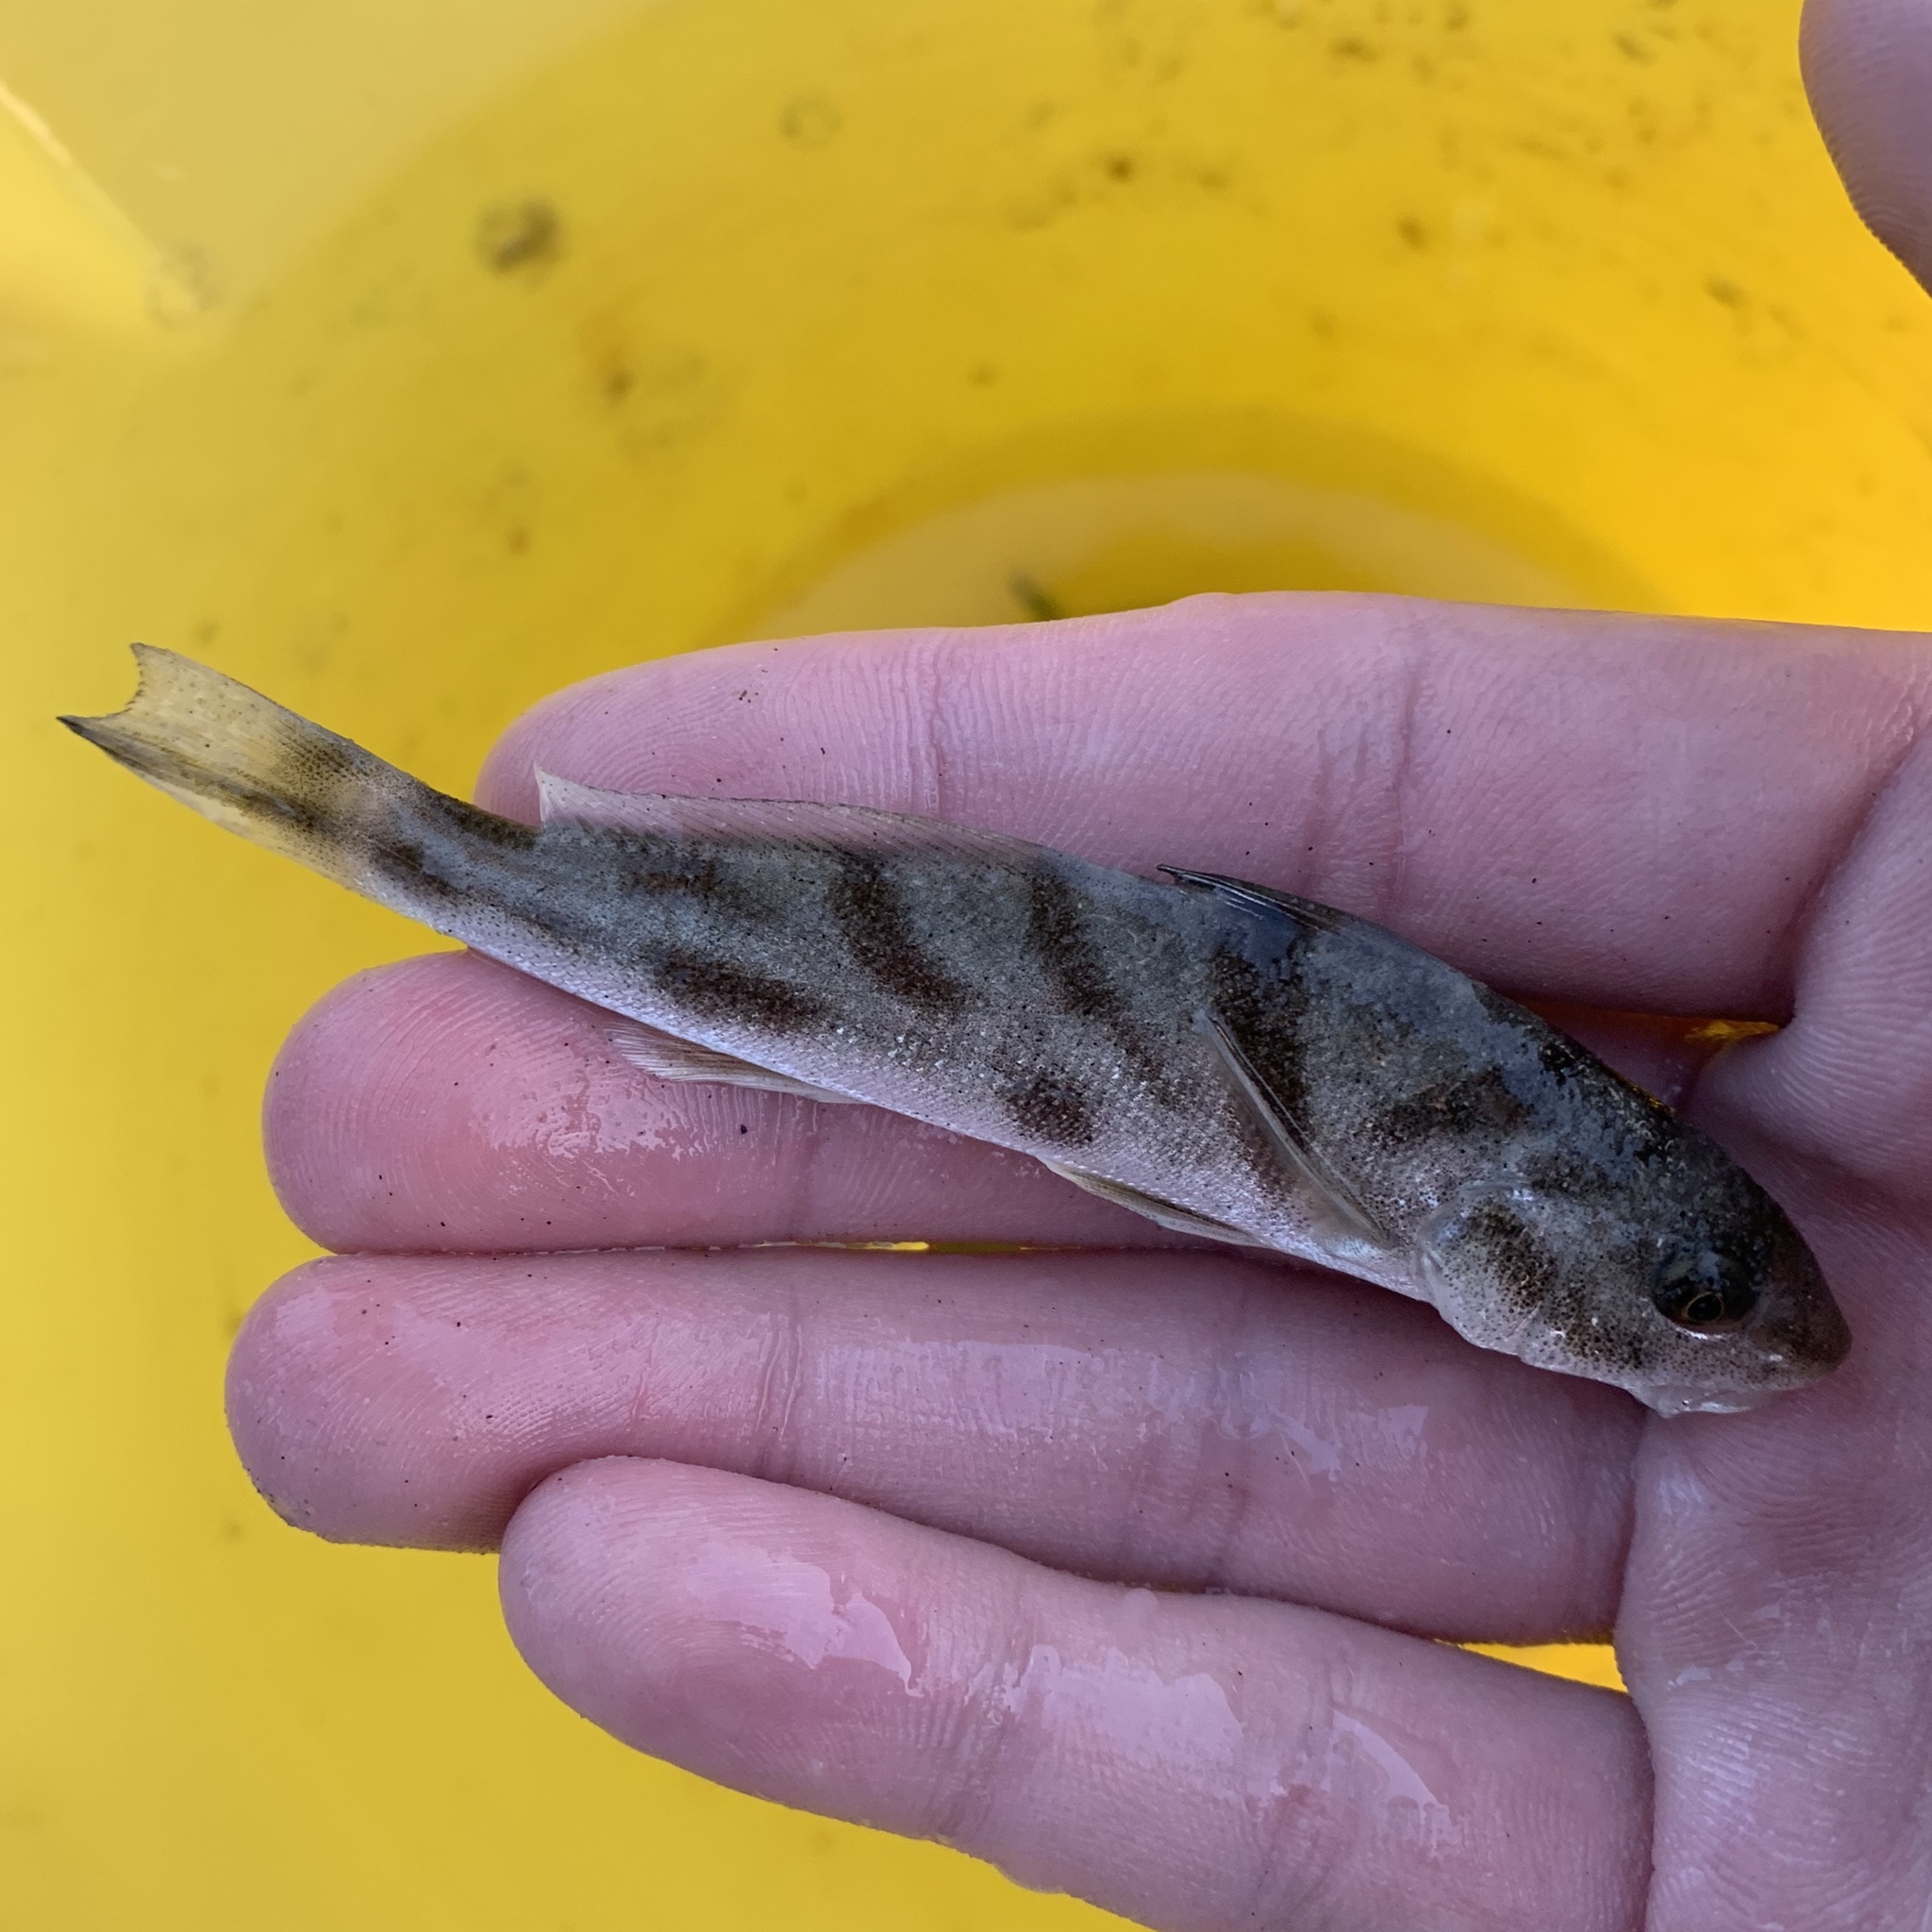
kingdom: Animalia
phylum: Chordata
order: Perciformes
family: Sciaenidae
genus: Menticirrhus
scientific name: Menticirrhus saxatilis
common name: Kingfish
